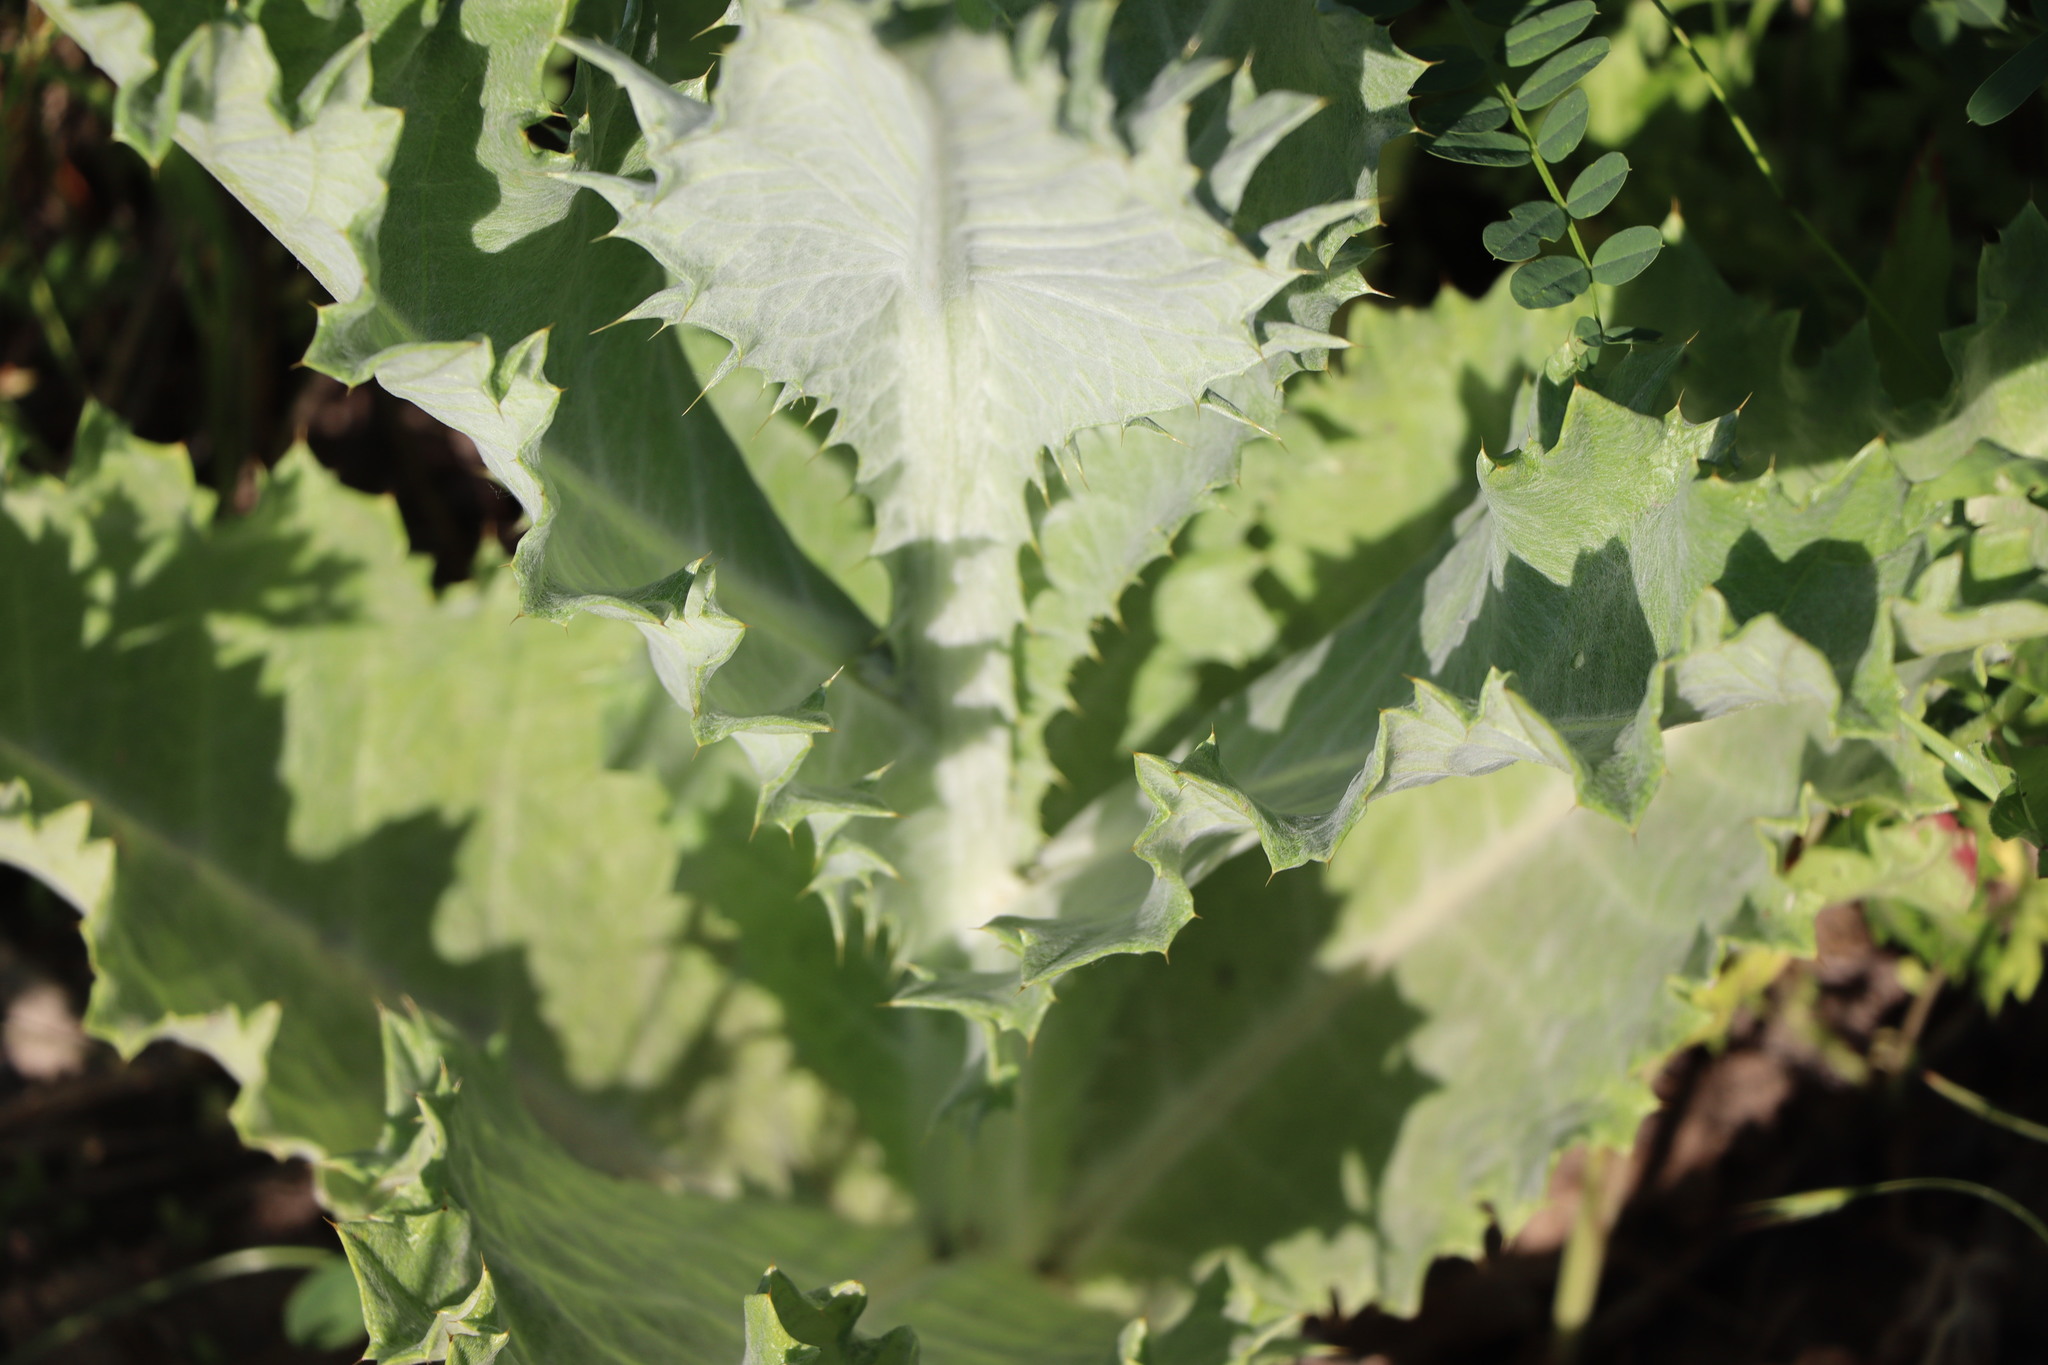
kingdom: Plantae
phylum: Tracheophyta
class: Magnoliopsida
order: Asterales
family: Asteraceae
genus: Onopordum
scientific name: Onopordum acanthium
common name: Scotch thistle
